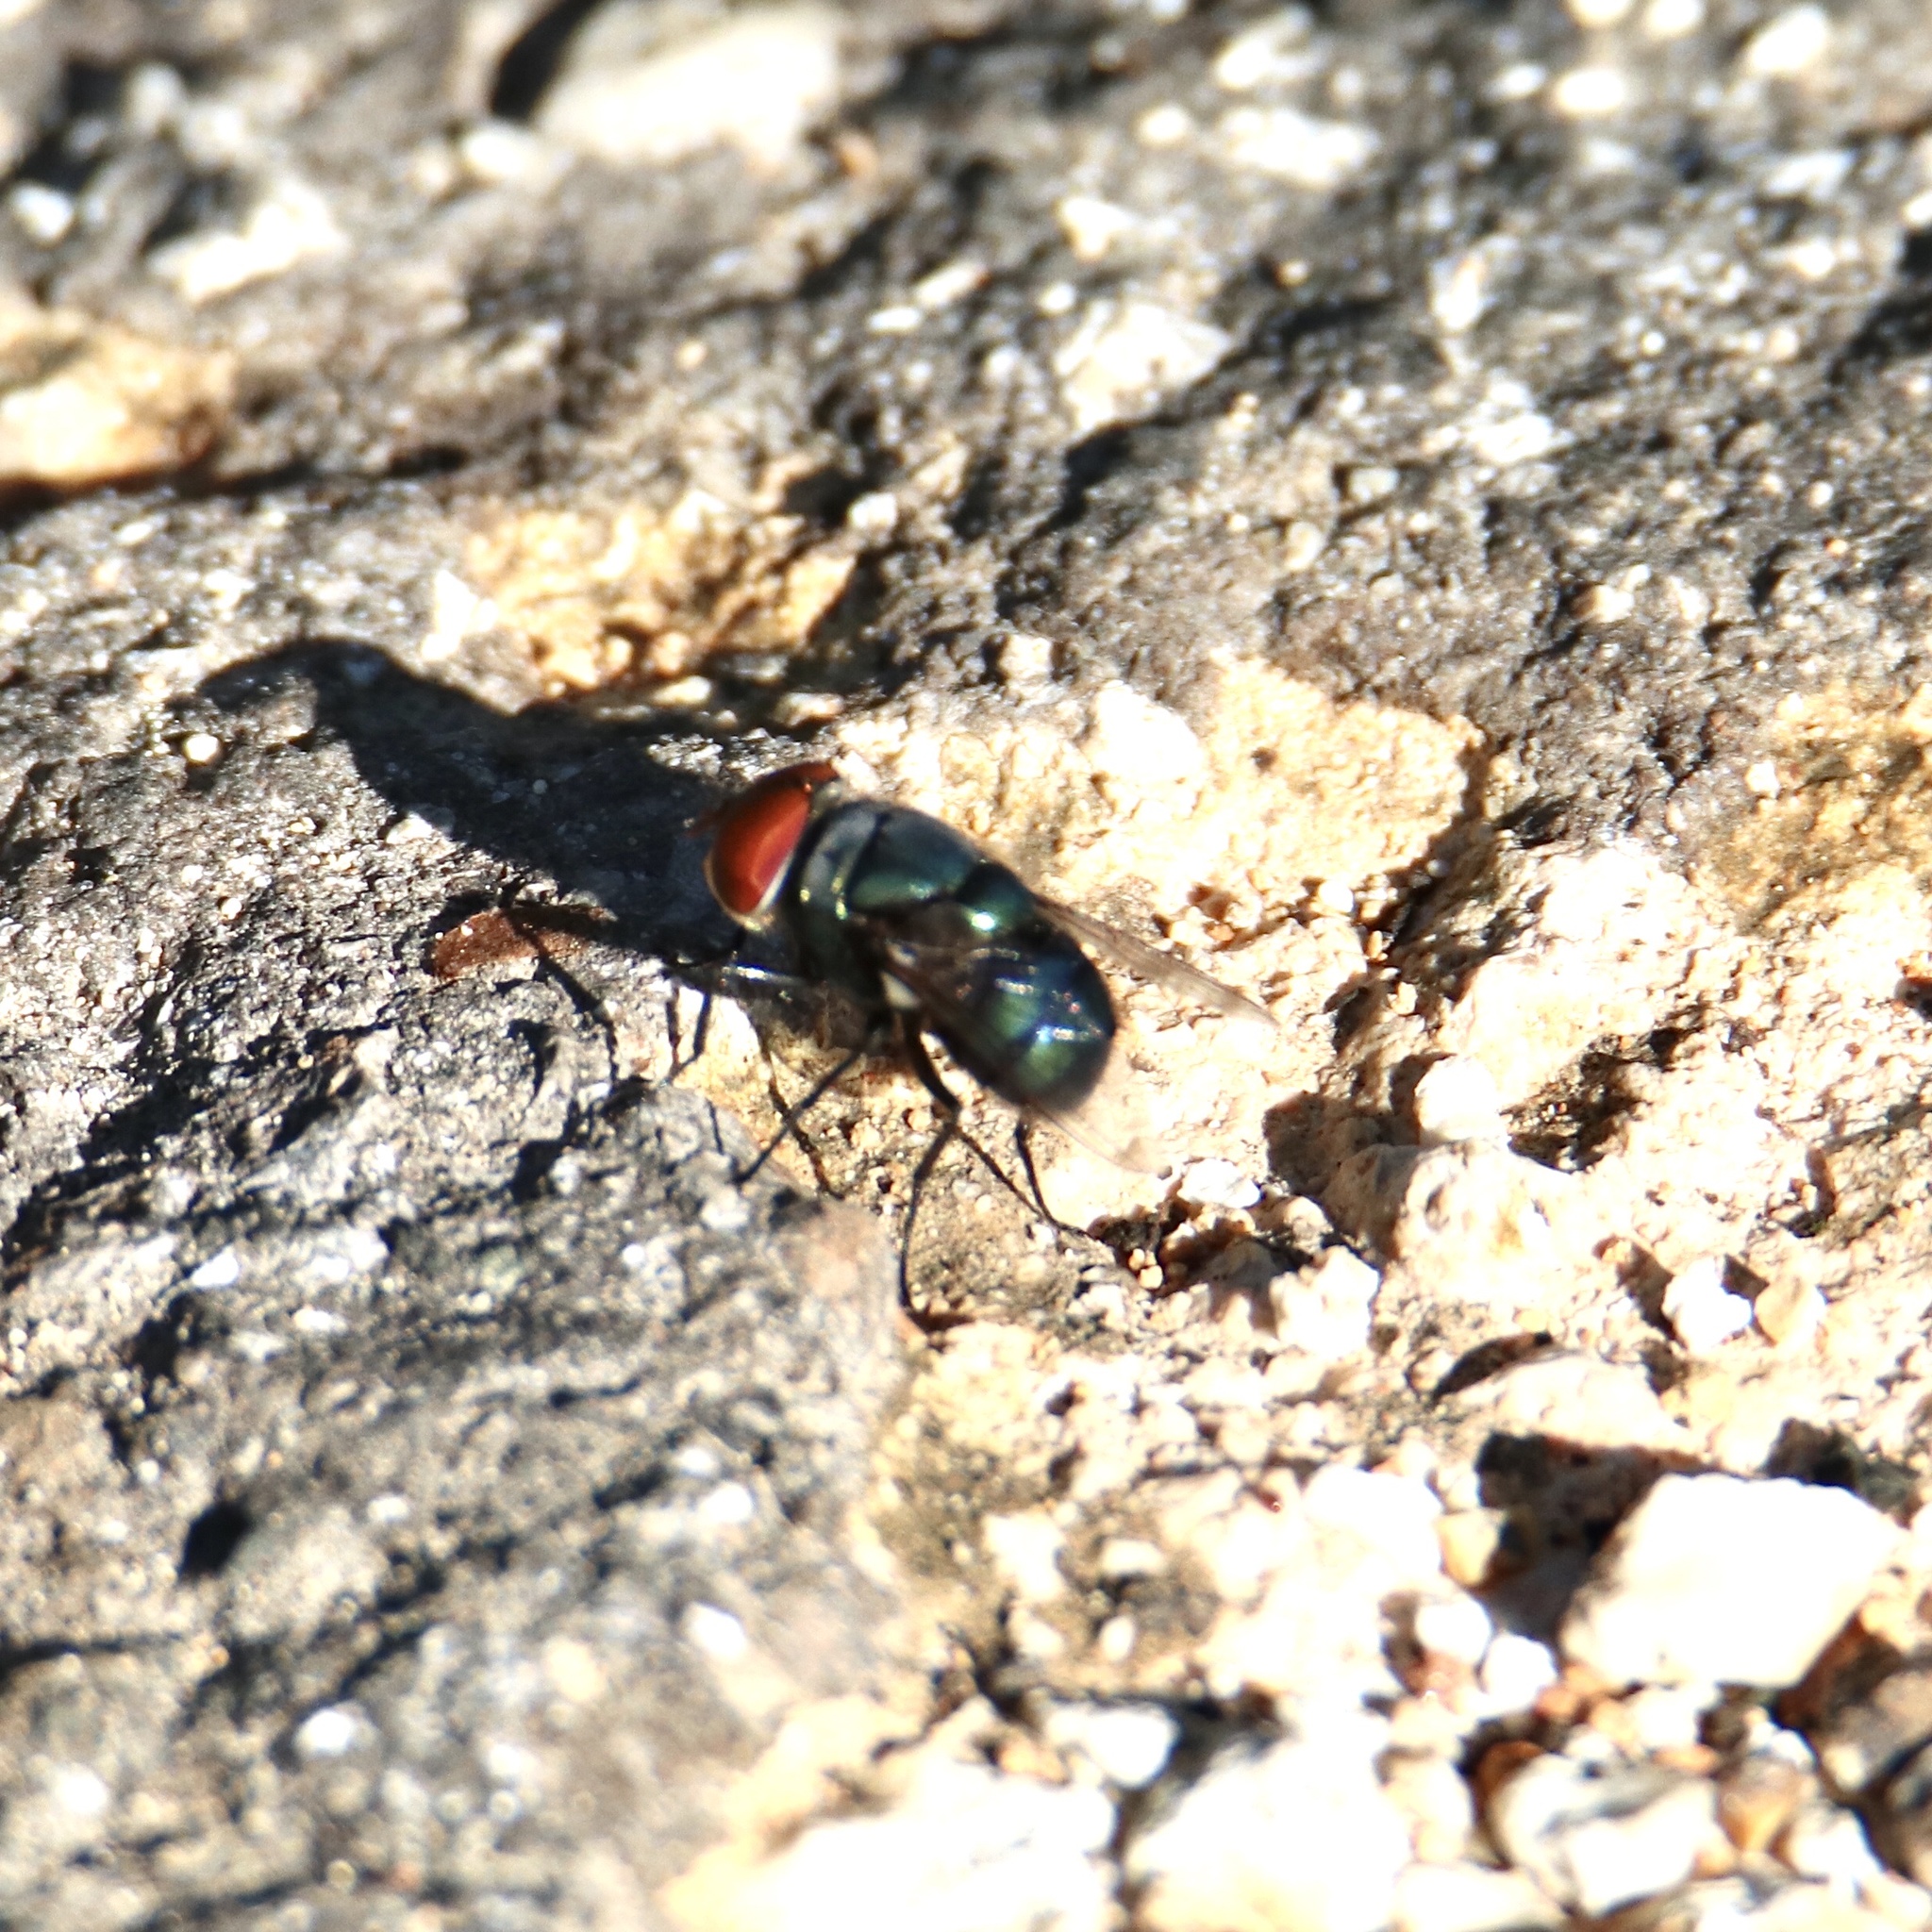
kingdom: Animalia
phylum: Arthropoda
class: Insecta
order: Diptera
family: Calliphoridae
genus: Chrysomya
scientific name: Chrysomya megacephala
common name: Blow fly
